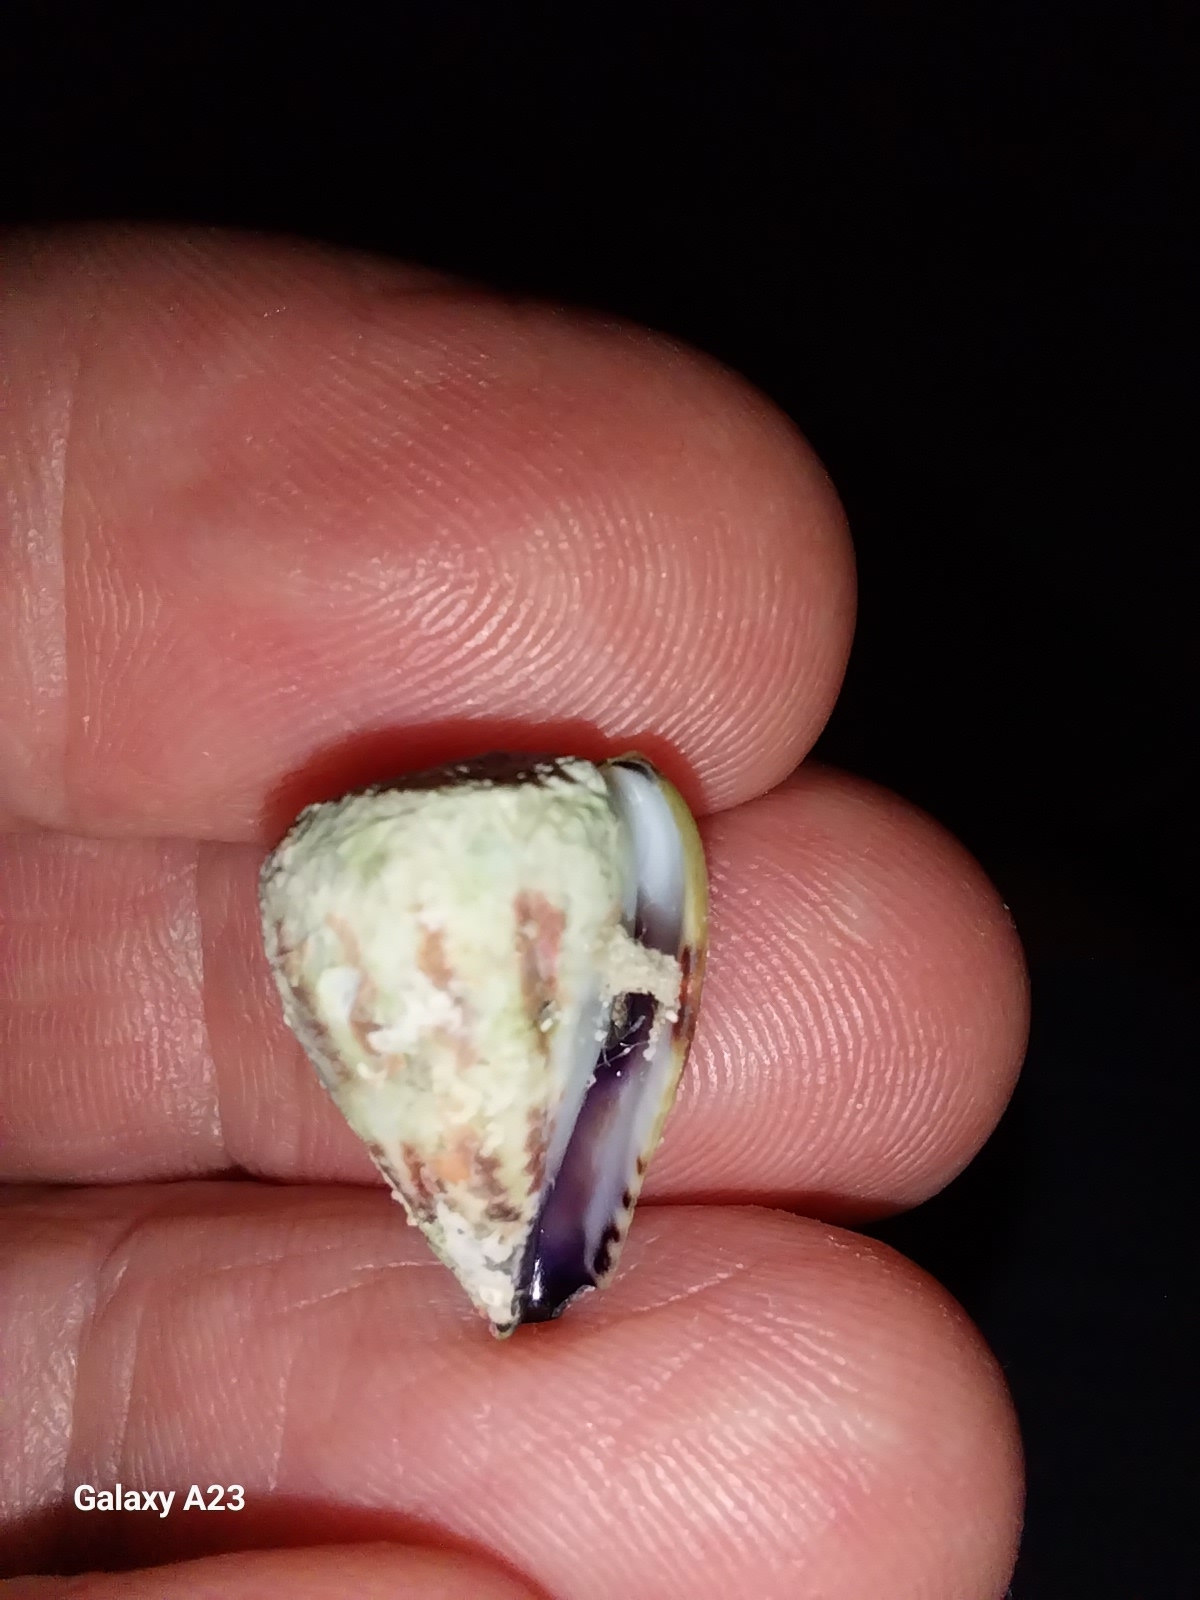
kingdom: Animalia
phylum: Mollusca
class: Gastropoda
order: Neogastropoda
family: Conidae
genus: Conus
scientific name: Conus sponsalis
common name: Sponsal cone
